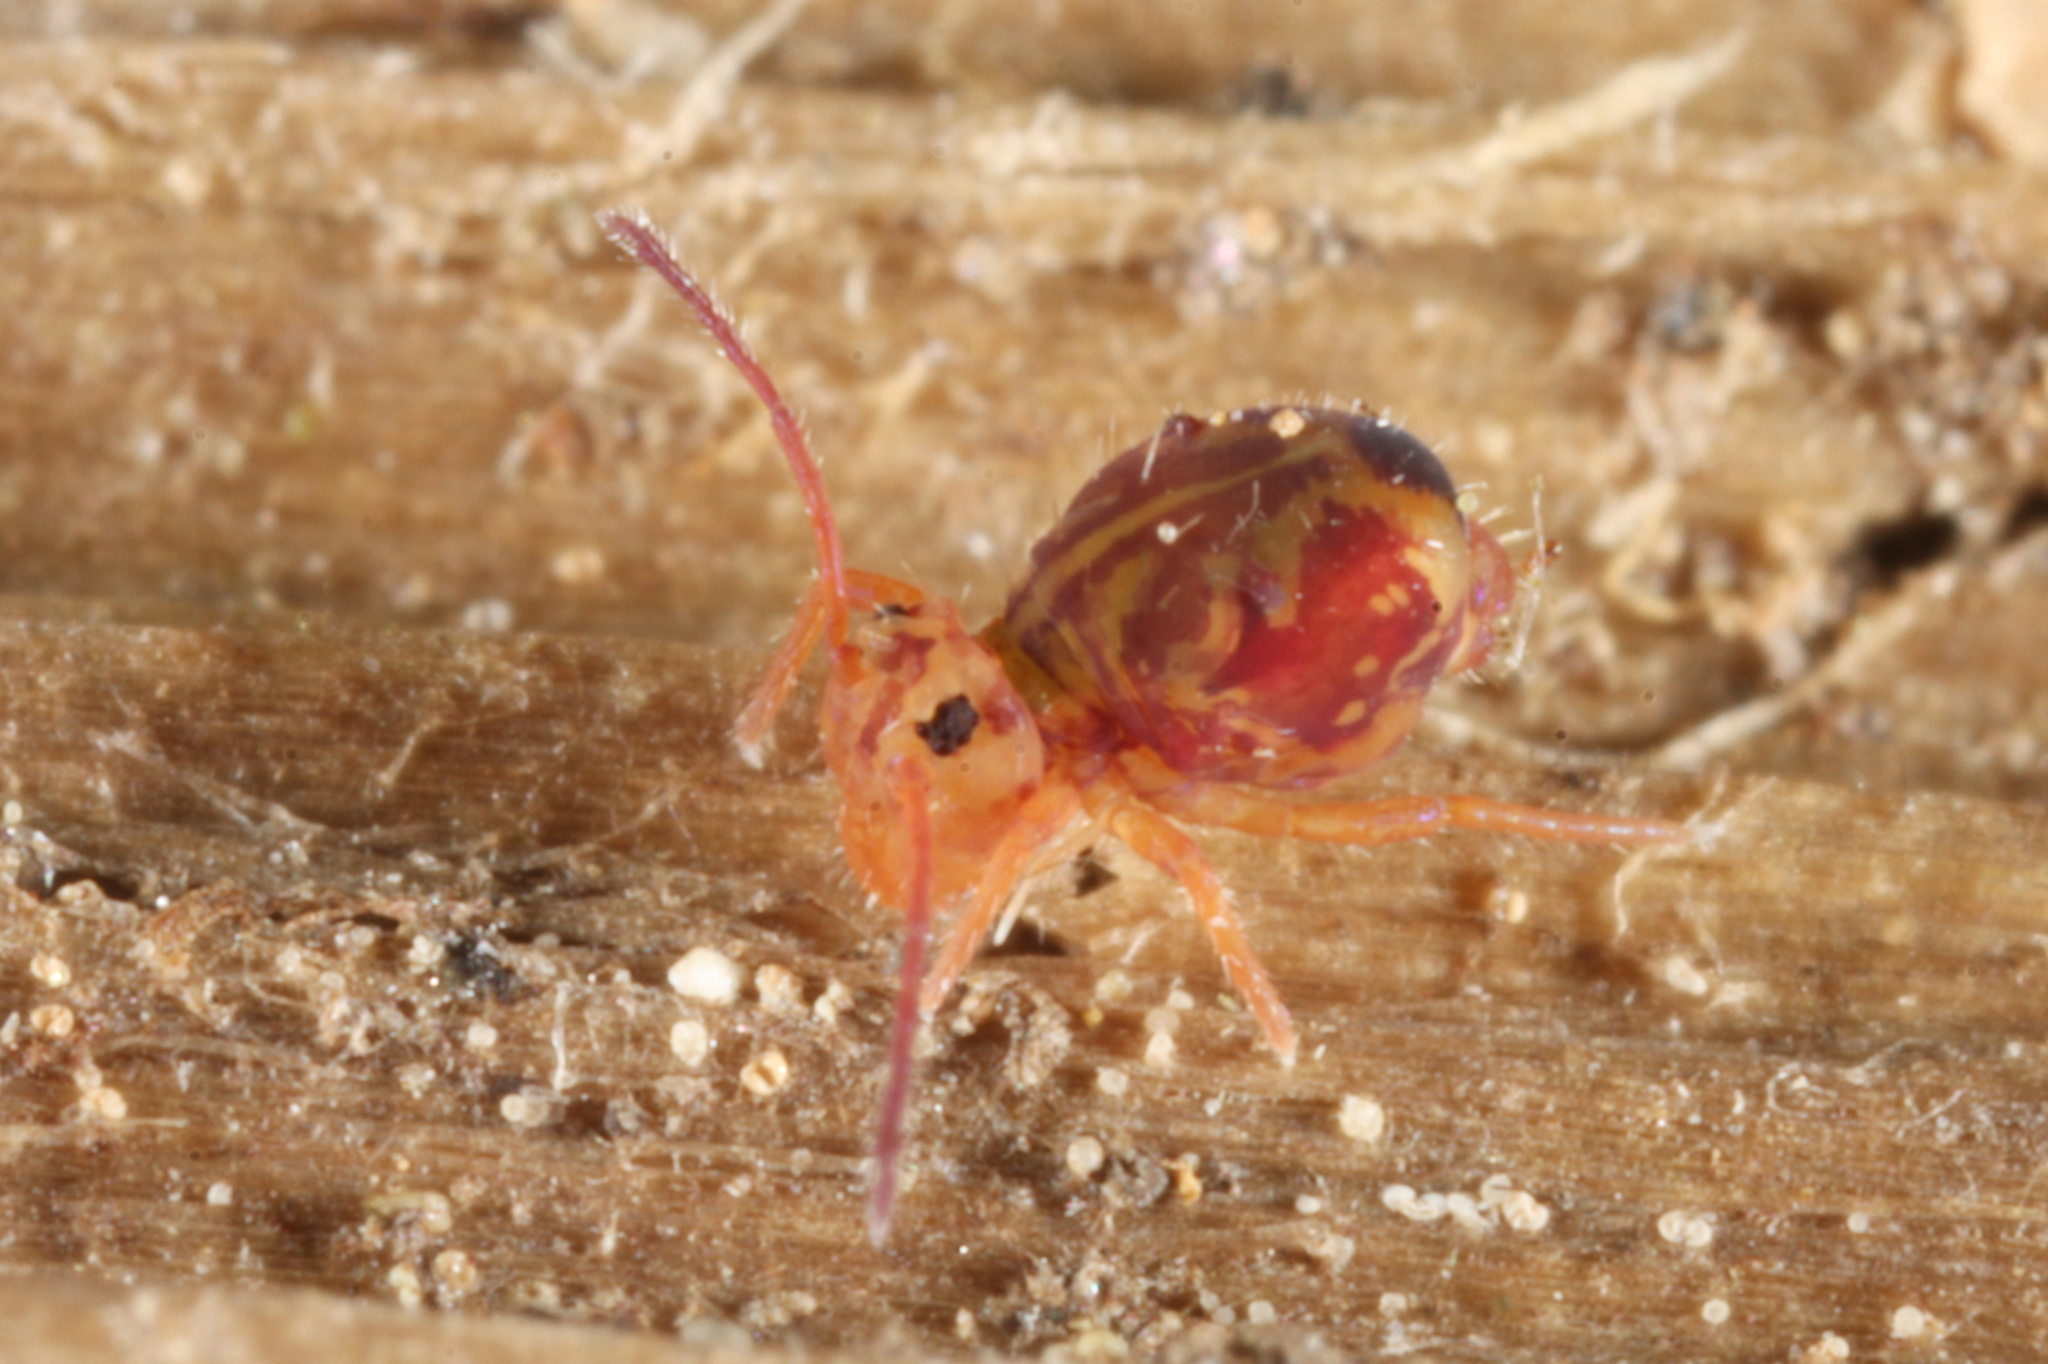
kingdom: Animalia
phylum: Arthropoda
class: Collembola
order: Symphypleona
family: Dicyrtomidae
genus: Dicyrtomina
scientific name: Dicyrtomina ornata
